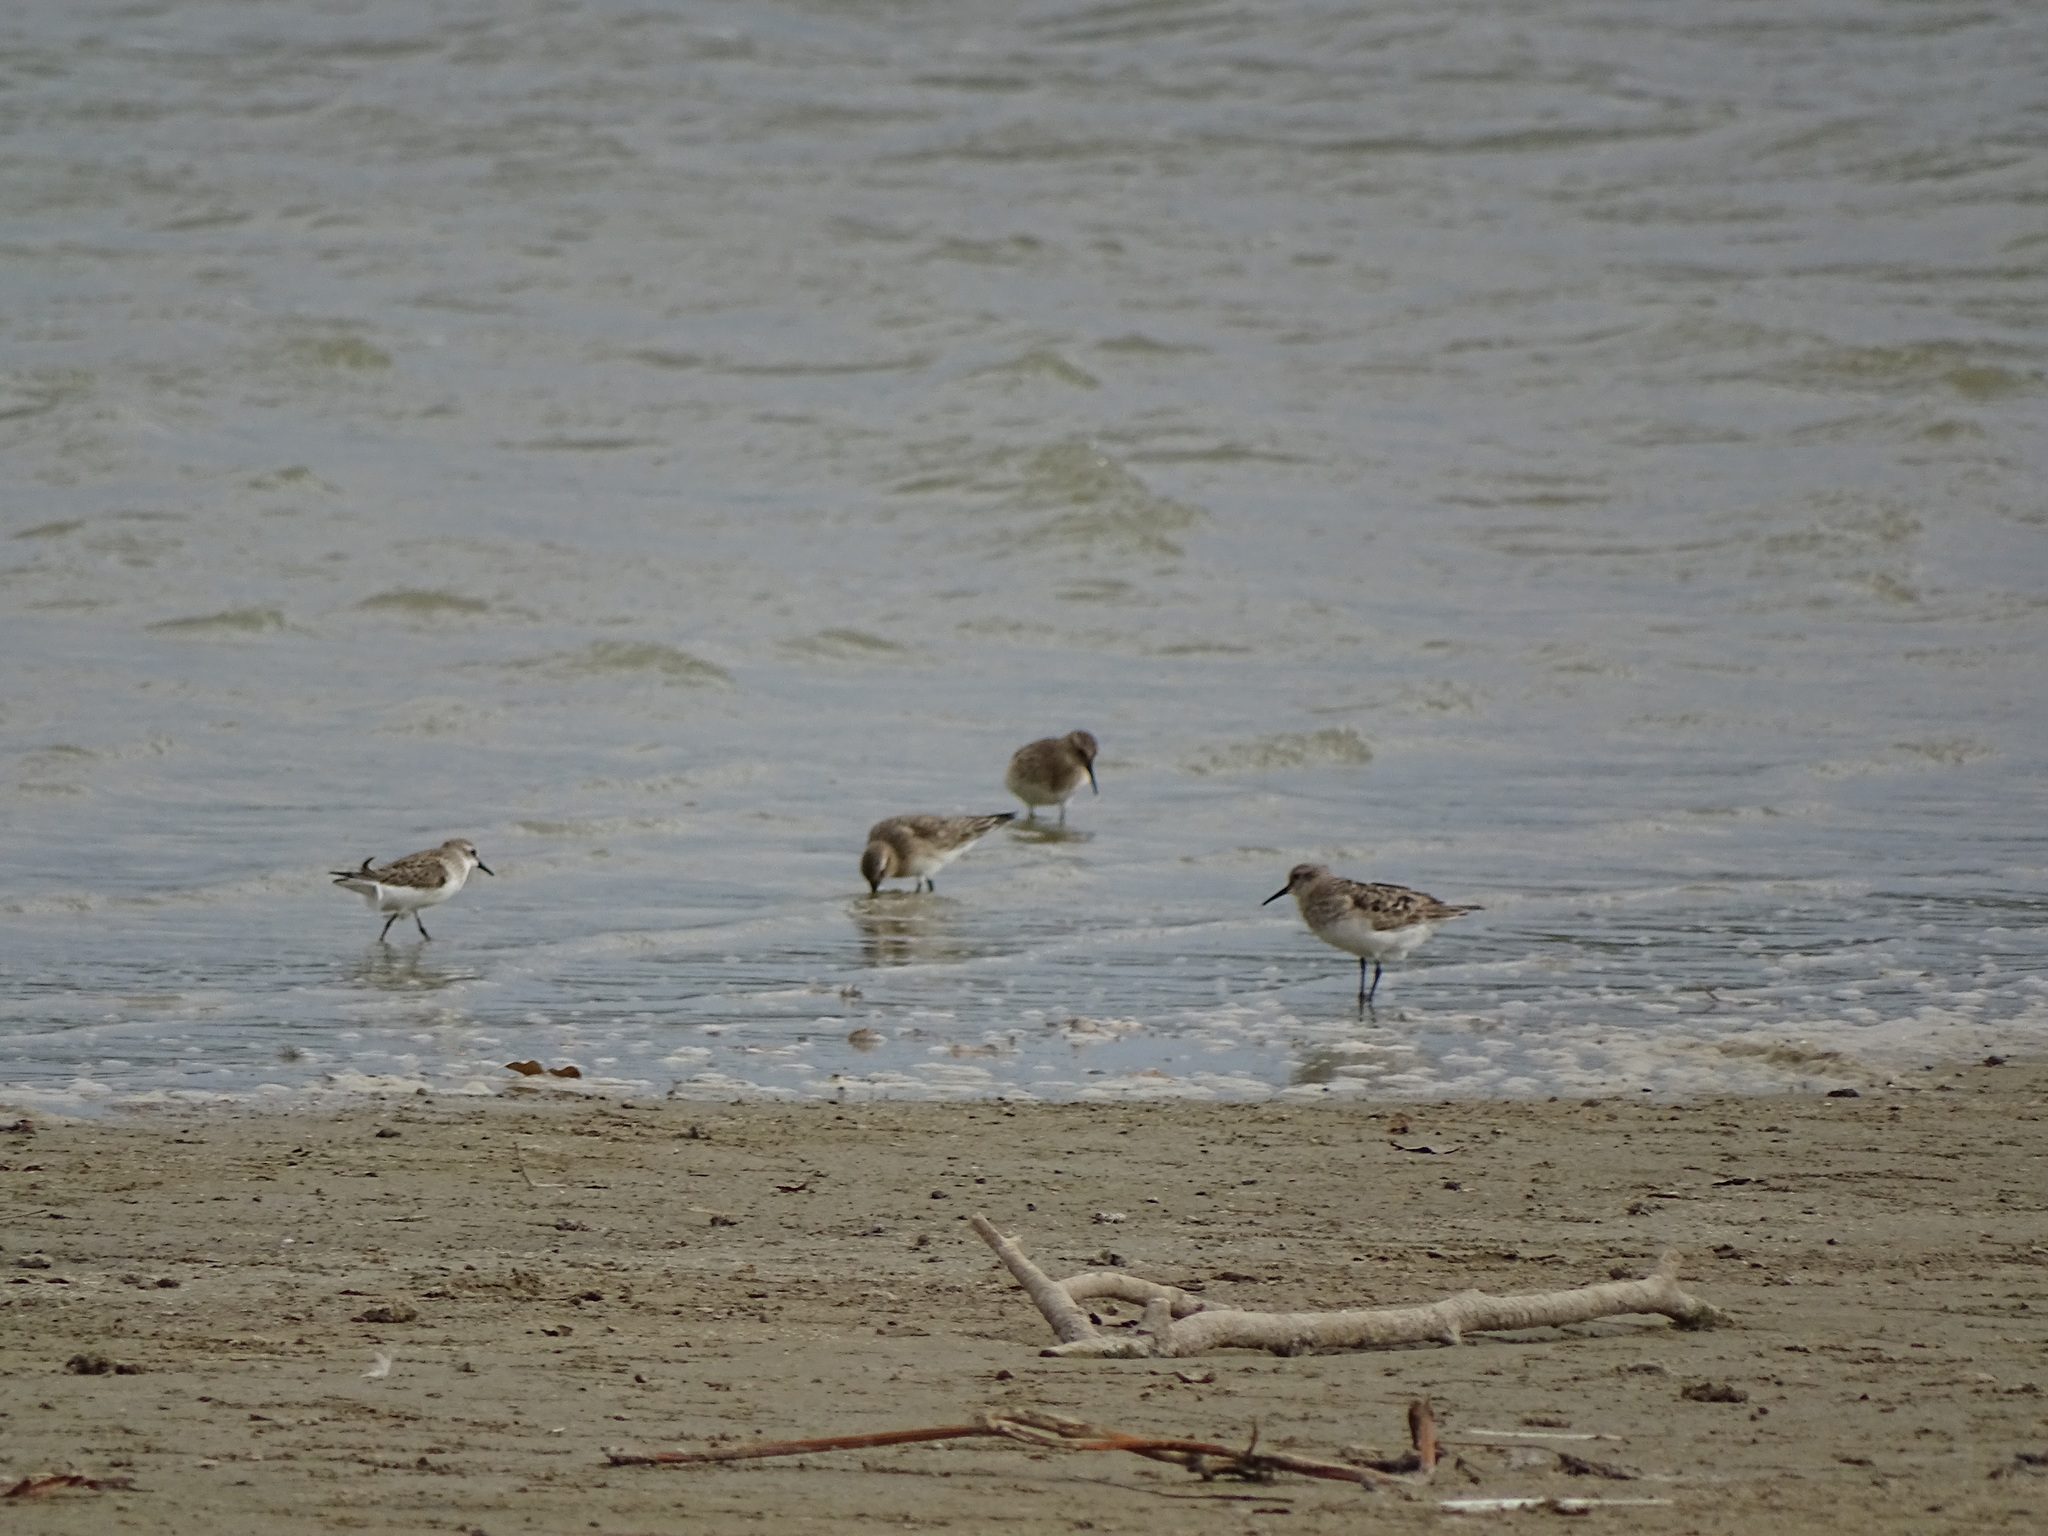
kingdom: Animalia
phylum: Chordata
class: Aves
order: Charadriiformes
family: Scolopacidae
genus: Calidris
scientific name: Calidris bairdii
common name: Baird's sandpiper
